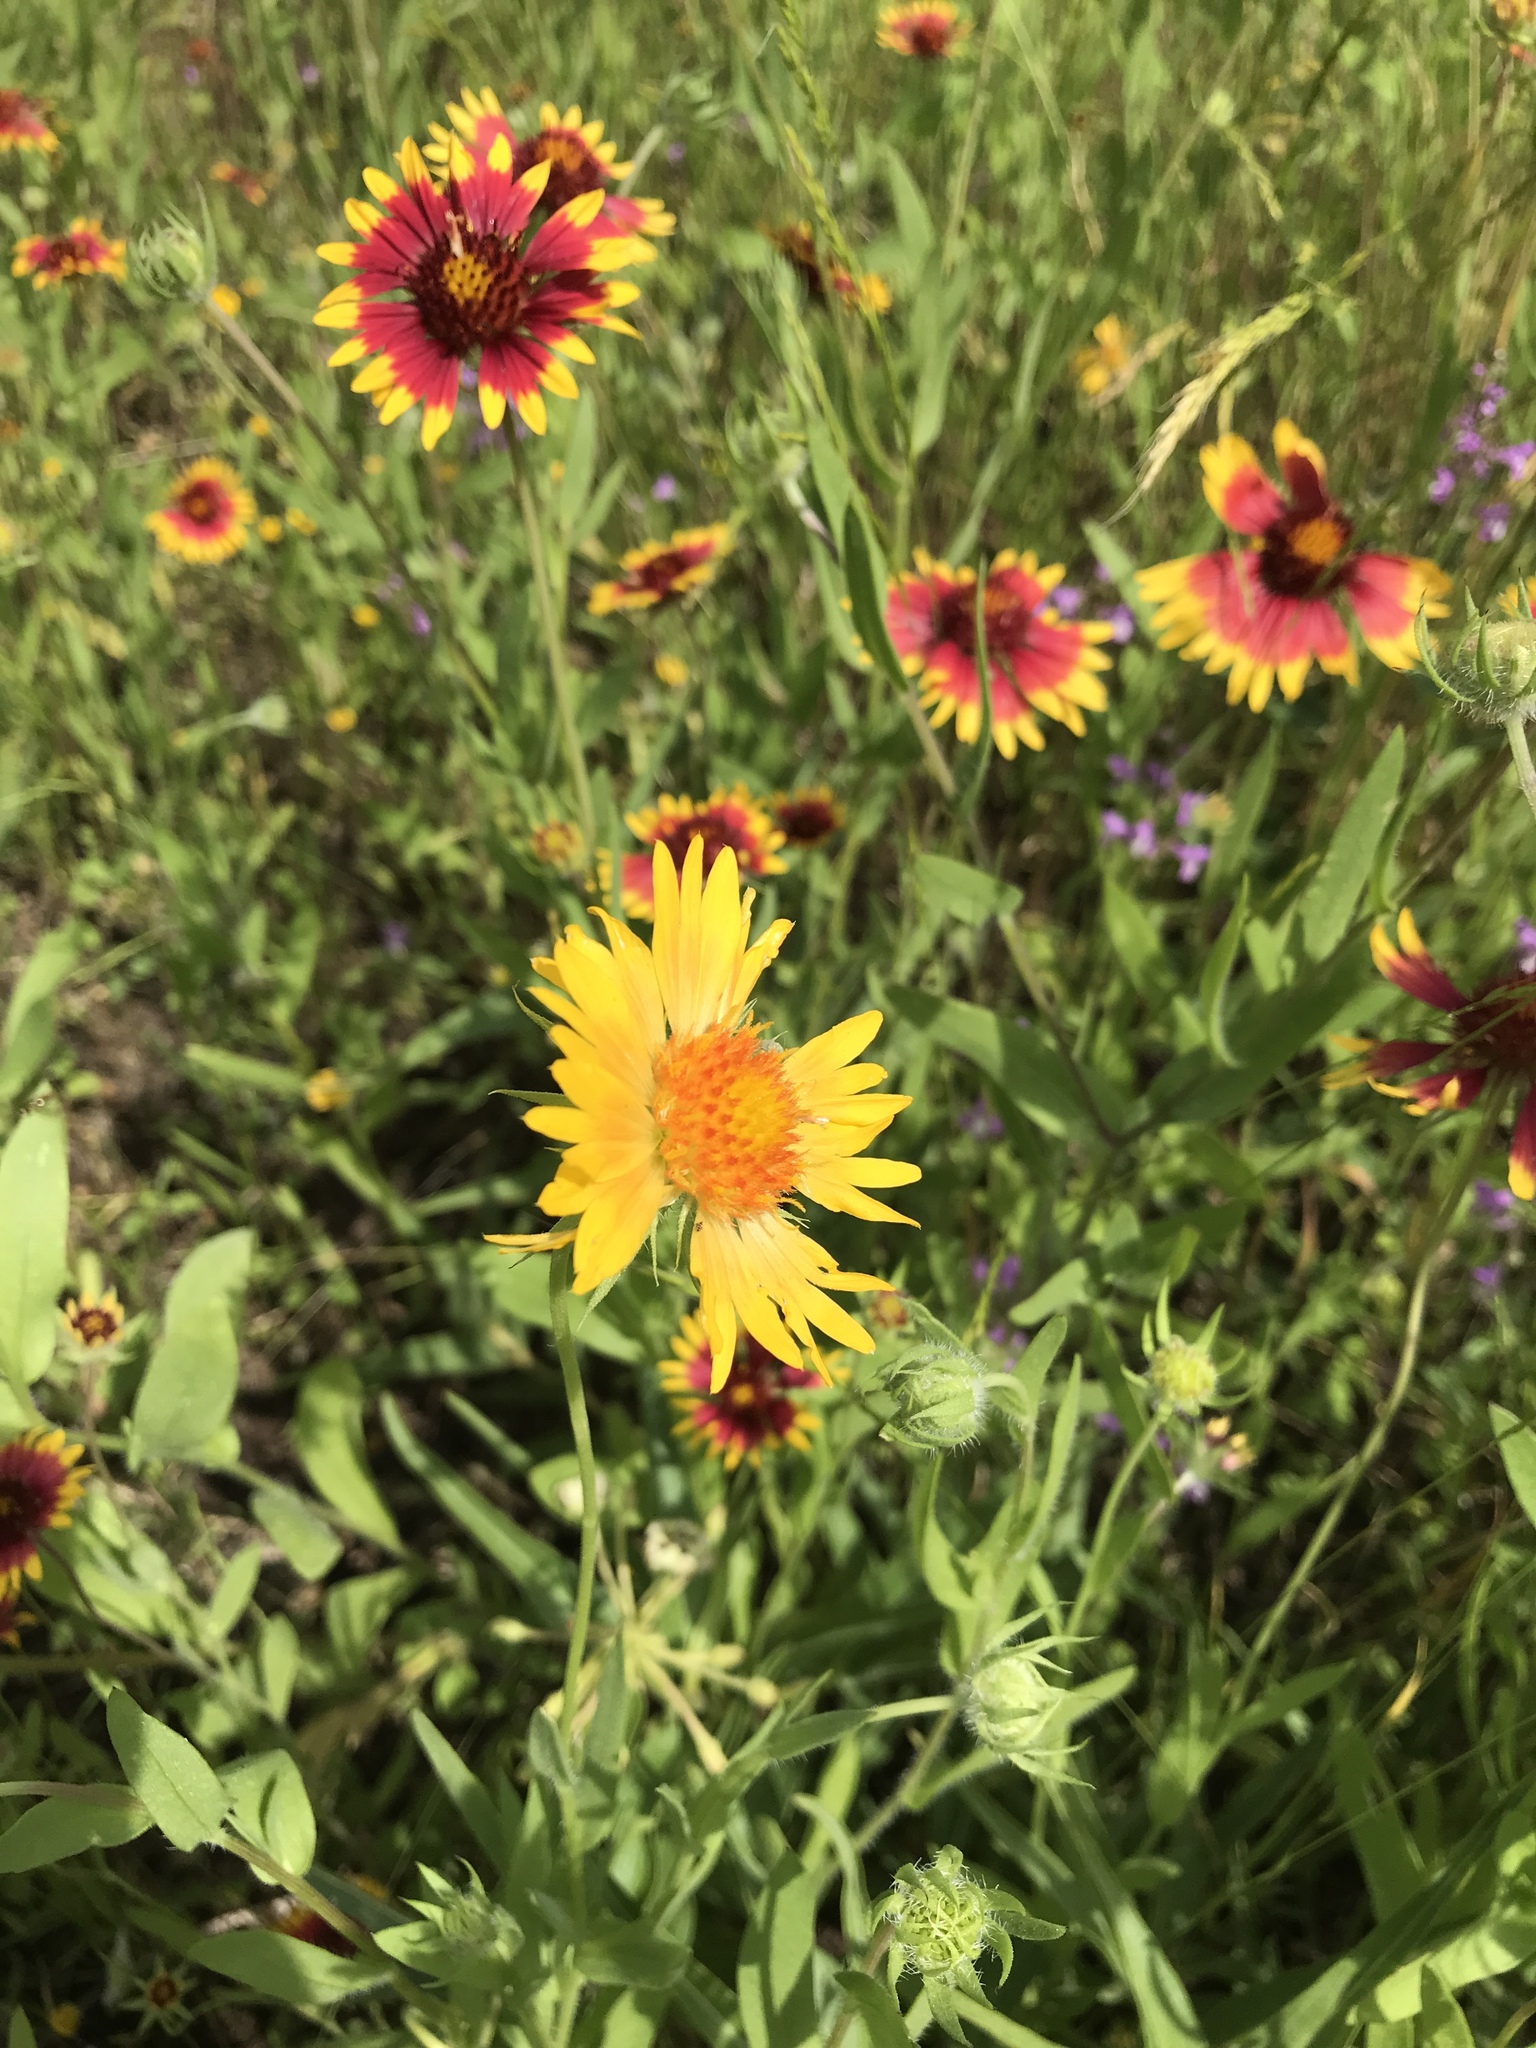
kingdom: Plantae
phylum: Tracheophyta
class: Magnoliopsida
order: Asterales
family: Asteraceae
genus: Gaillardia
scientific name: Gaillardia pulchella
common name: Firewheel
